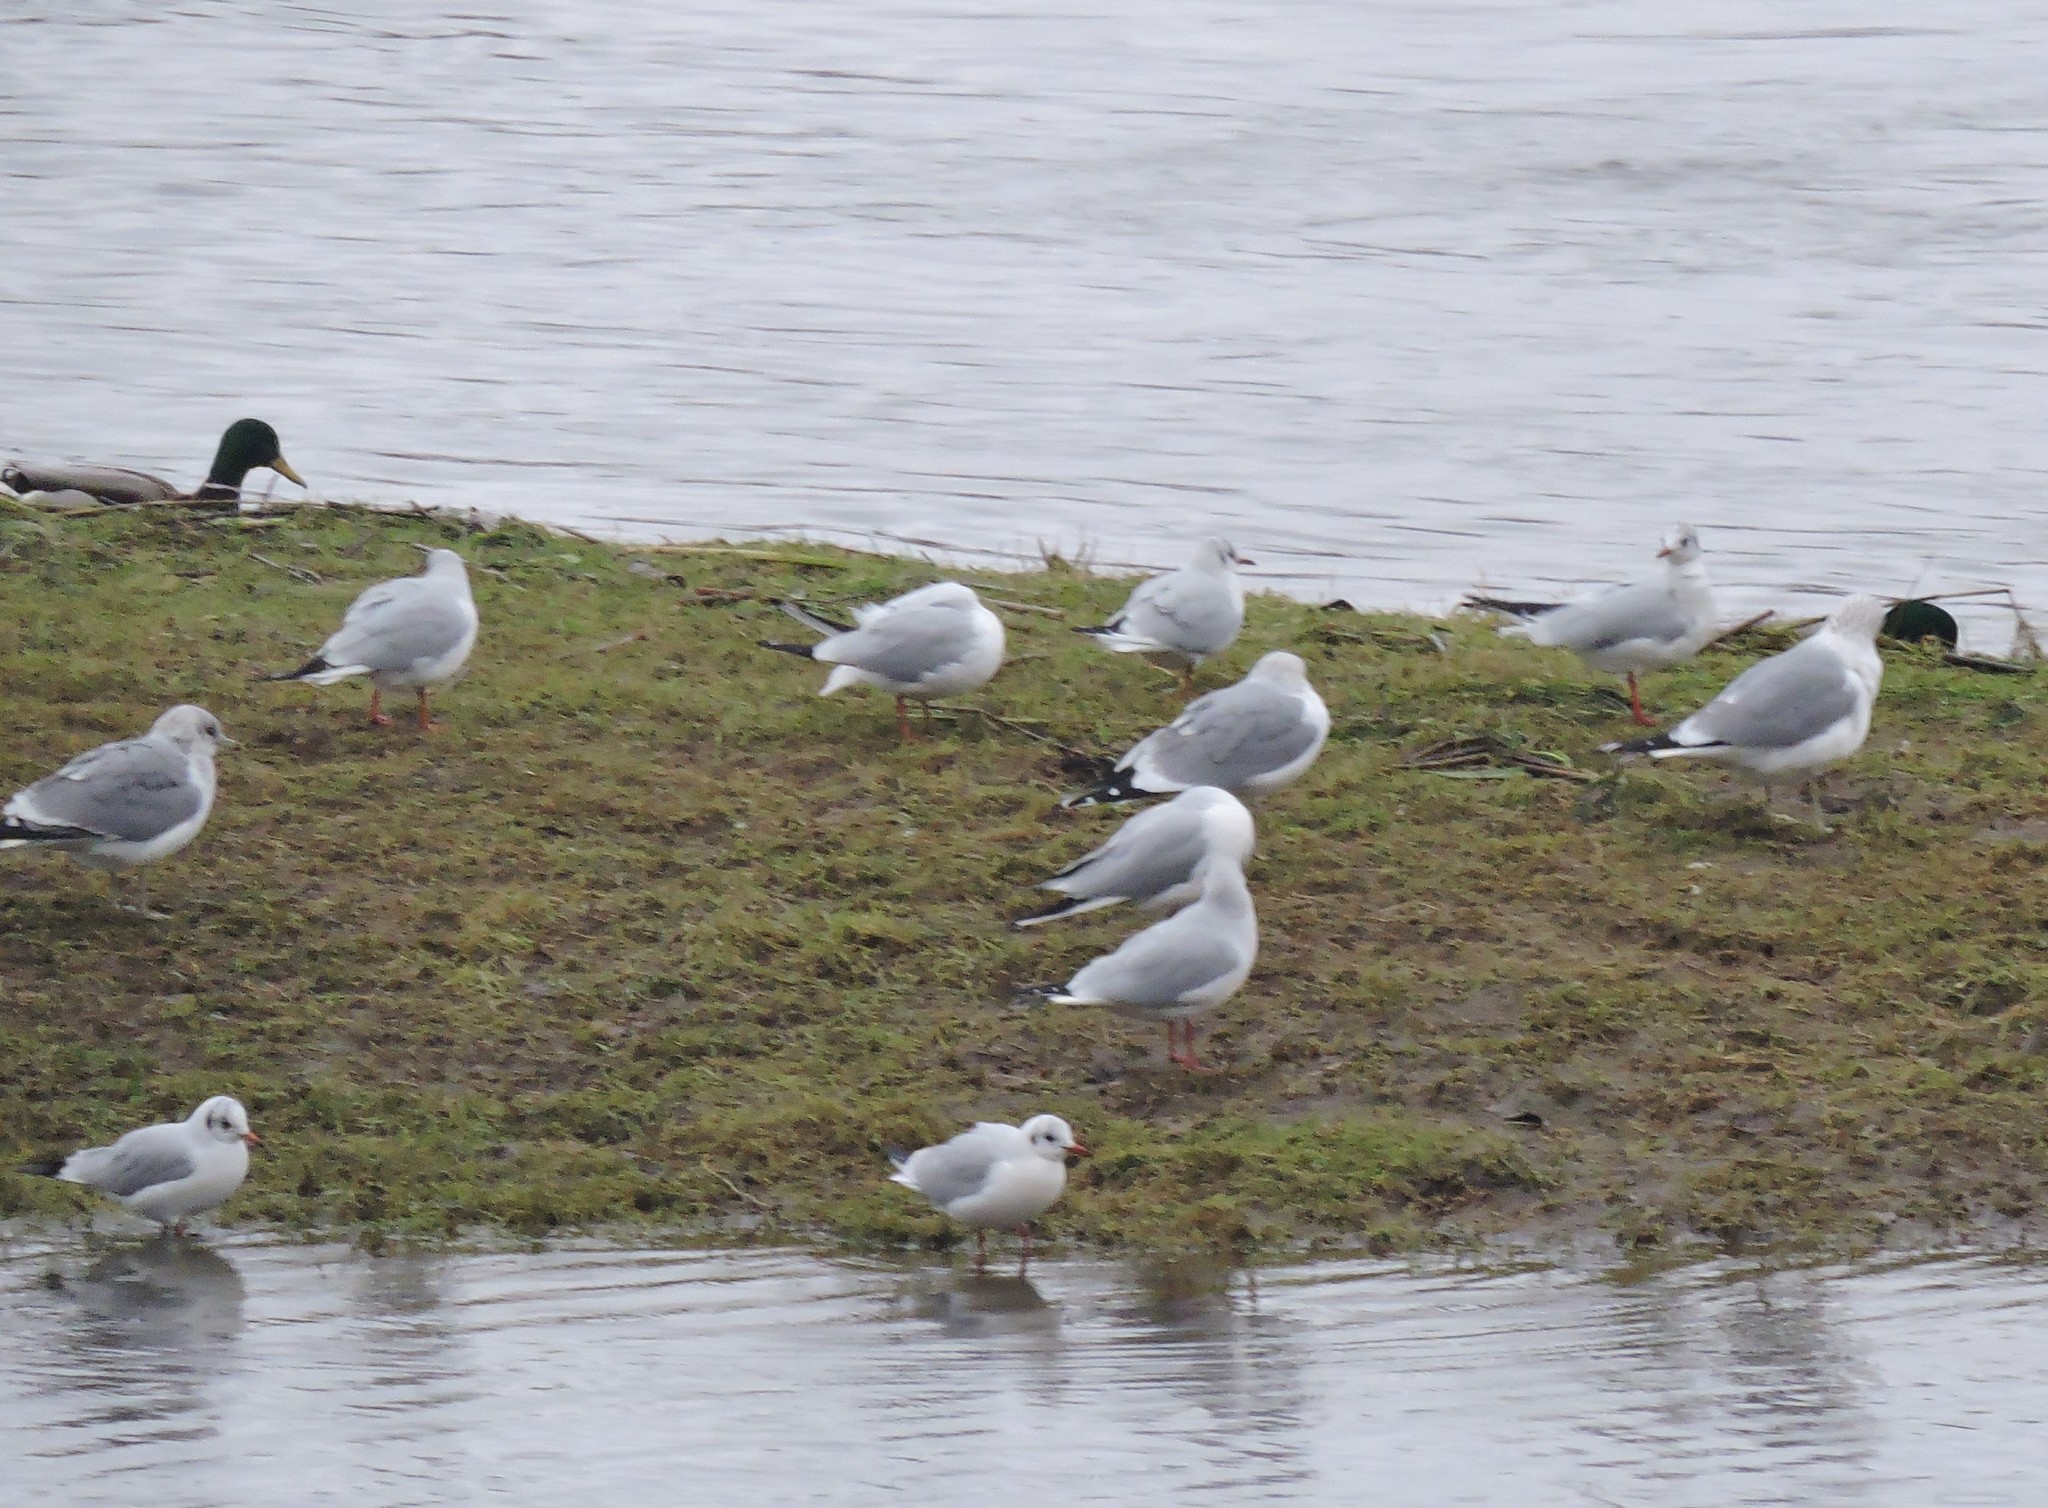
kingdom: Animalia
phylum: Chordata
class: Aves
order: Charadriiformes
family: Laridae
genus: Larus
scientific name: Larus canus
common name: Mew gull
